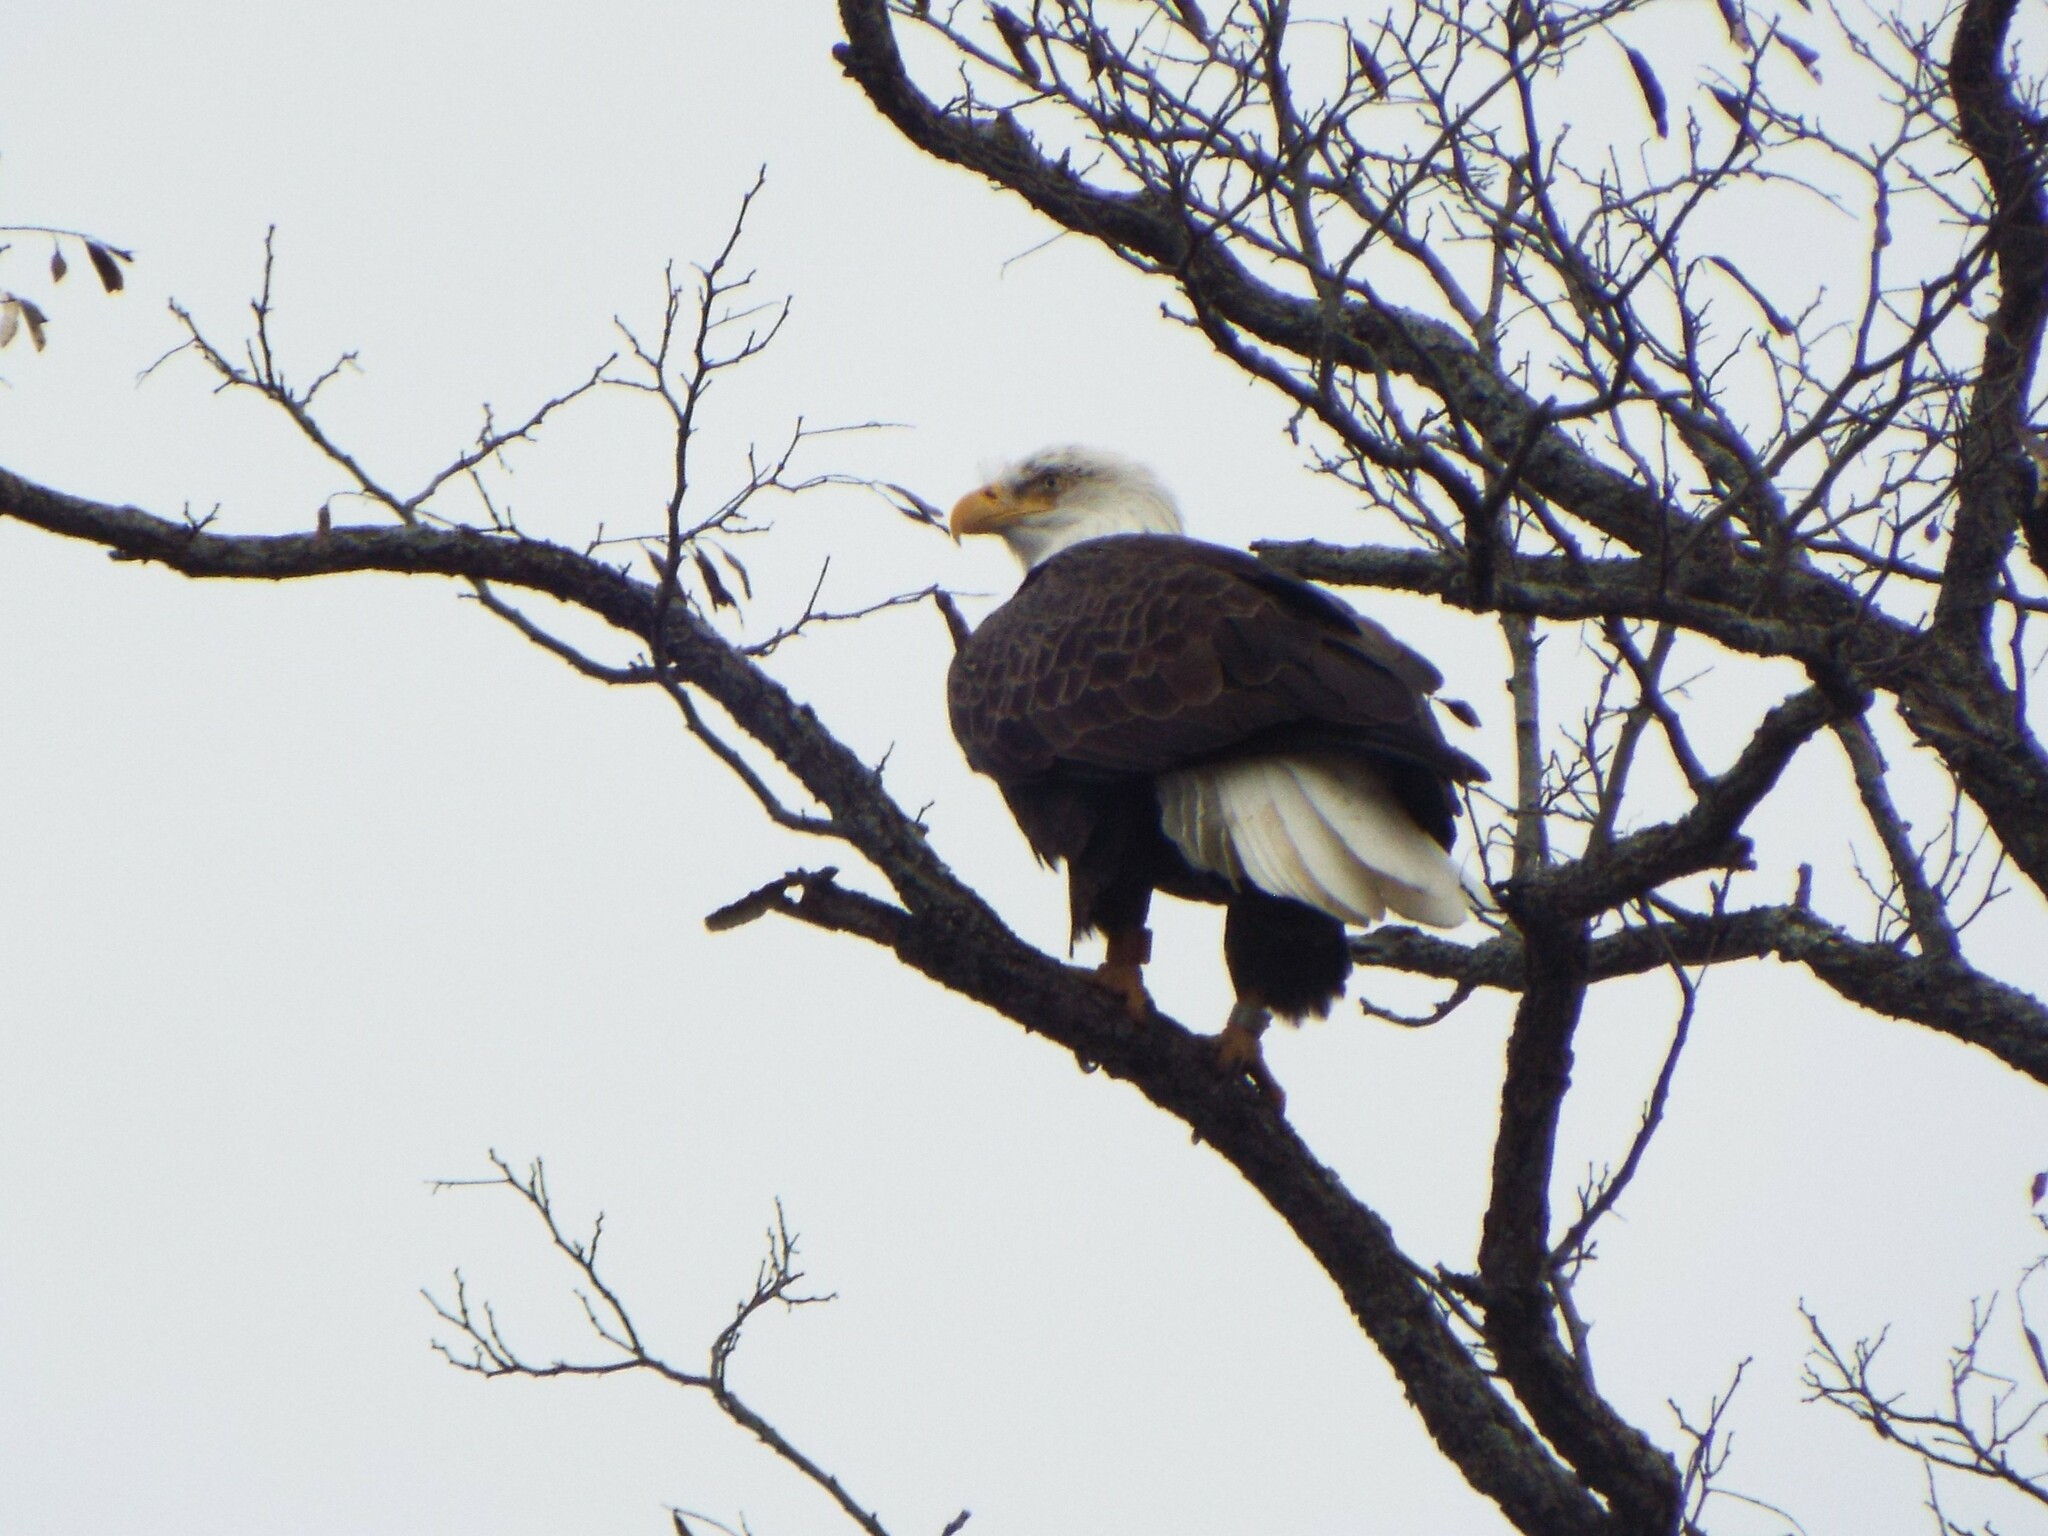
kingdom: Animalia
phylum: Chordata
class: Aves
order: Accipitriformes
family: Accipitridae
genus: Haliaeetus
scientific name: Haliaeetus leucocephalus
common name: Bald eagle
